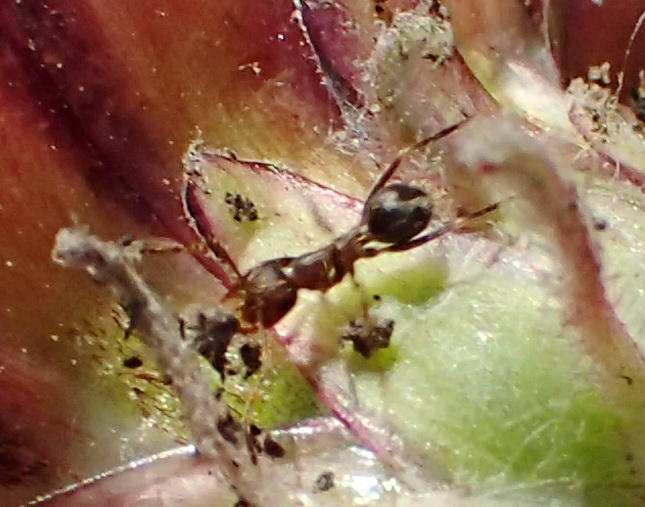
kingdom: Animalia
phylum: Arthropoda
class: Insecta
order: Hymenoptera
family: Formicidae
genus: Anoplolepis
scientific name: Anoplolepis custodiens
